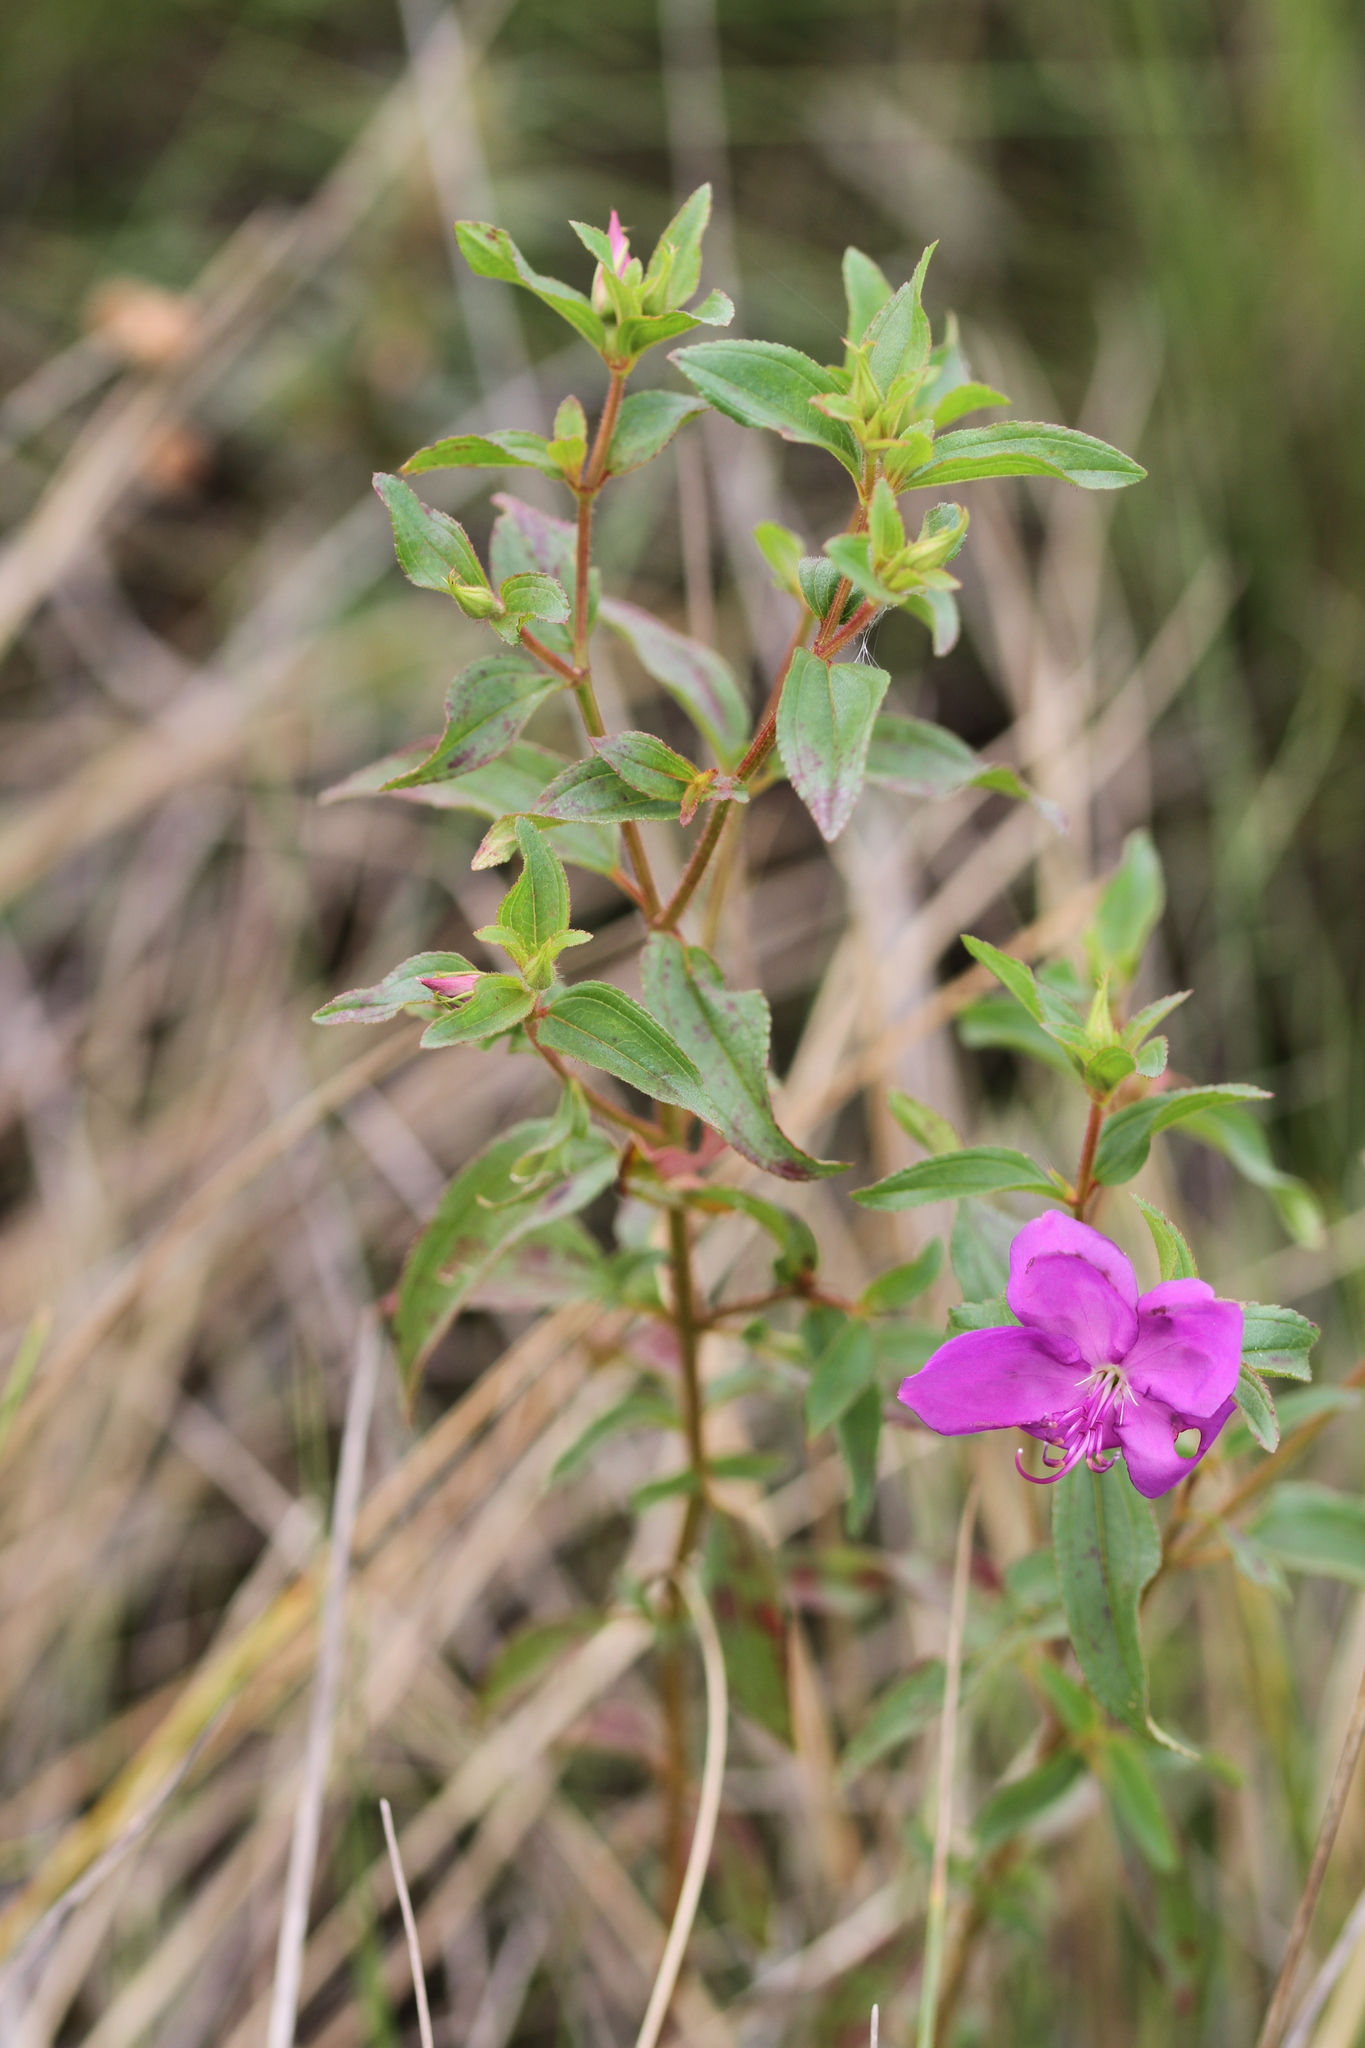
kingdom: Plantae
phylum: Tracheophyta
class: Magnoliopsida
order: Myrtales
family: Melastomataceae
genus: Rhynchanthera
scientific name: Rhynchanthera serrulata
